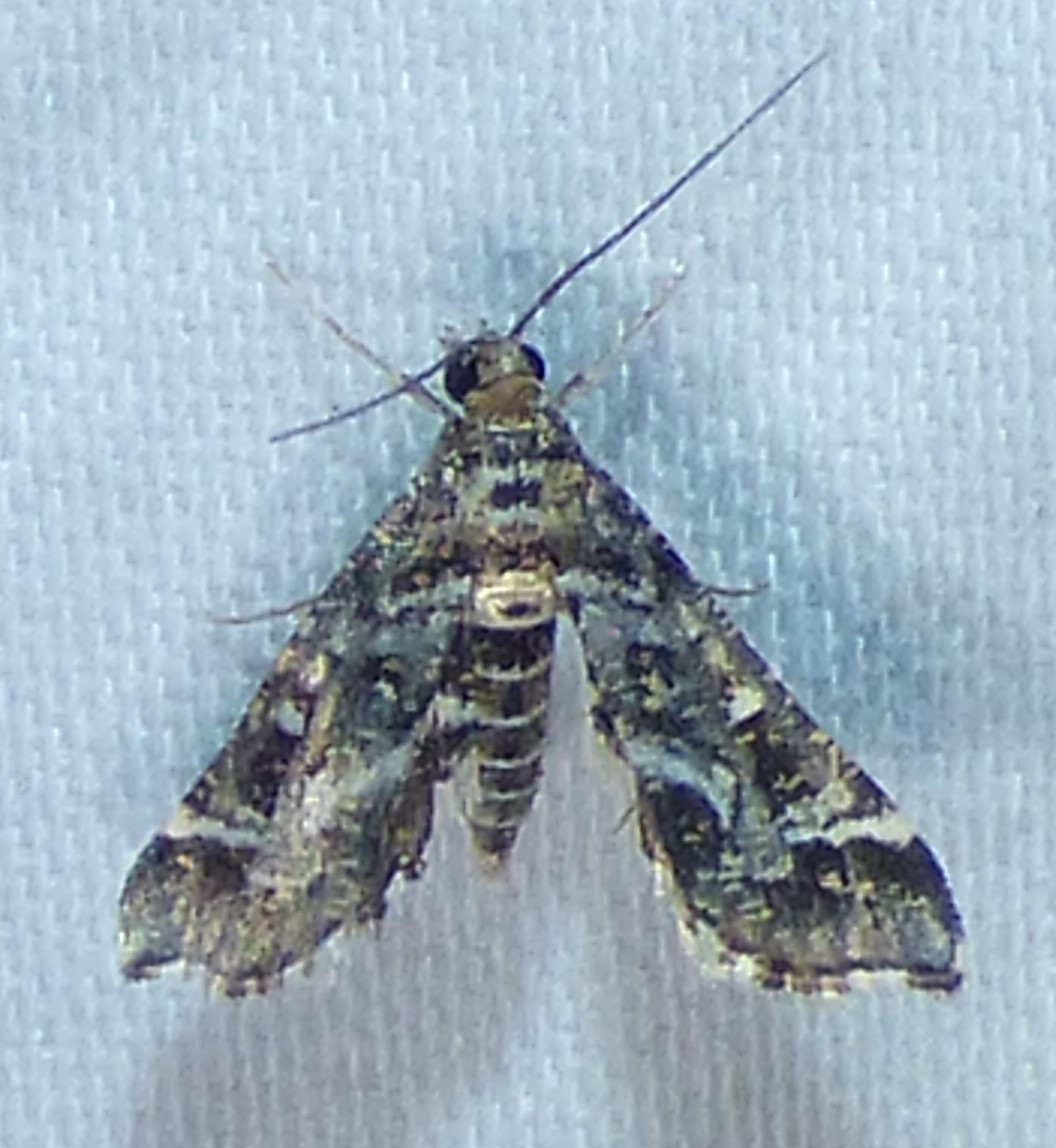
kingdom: Animalia
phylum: Arthropoda
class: Insecta
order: Lepidoptera
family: Crambidae
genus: Diasemiopsis
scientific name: Diasemiopsis ramburialis
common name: Vagrant china-mark
